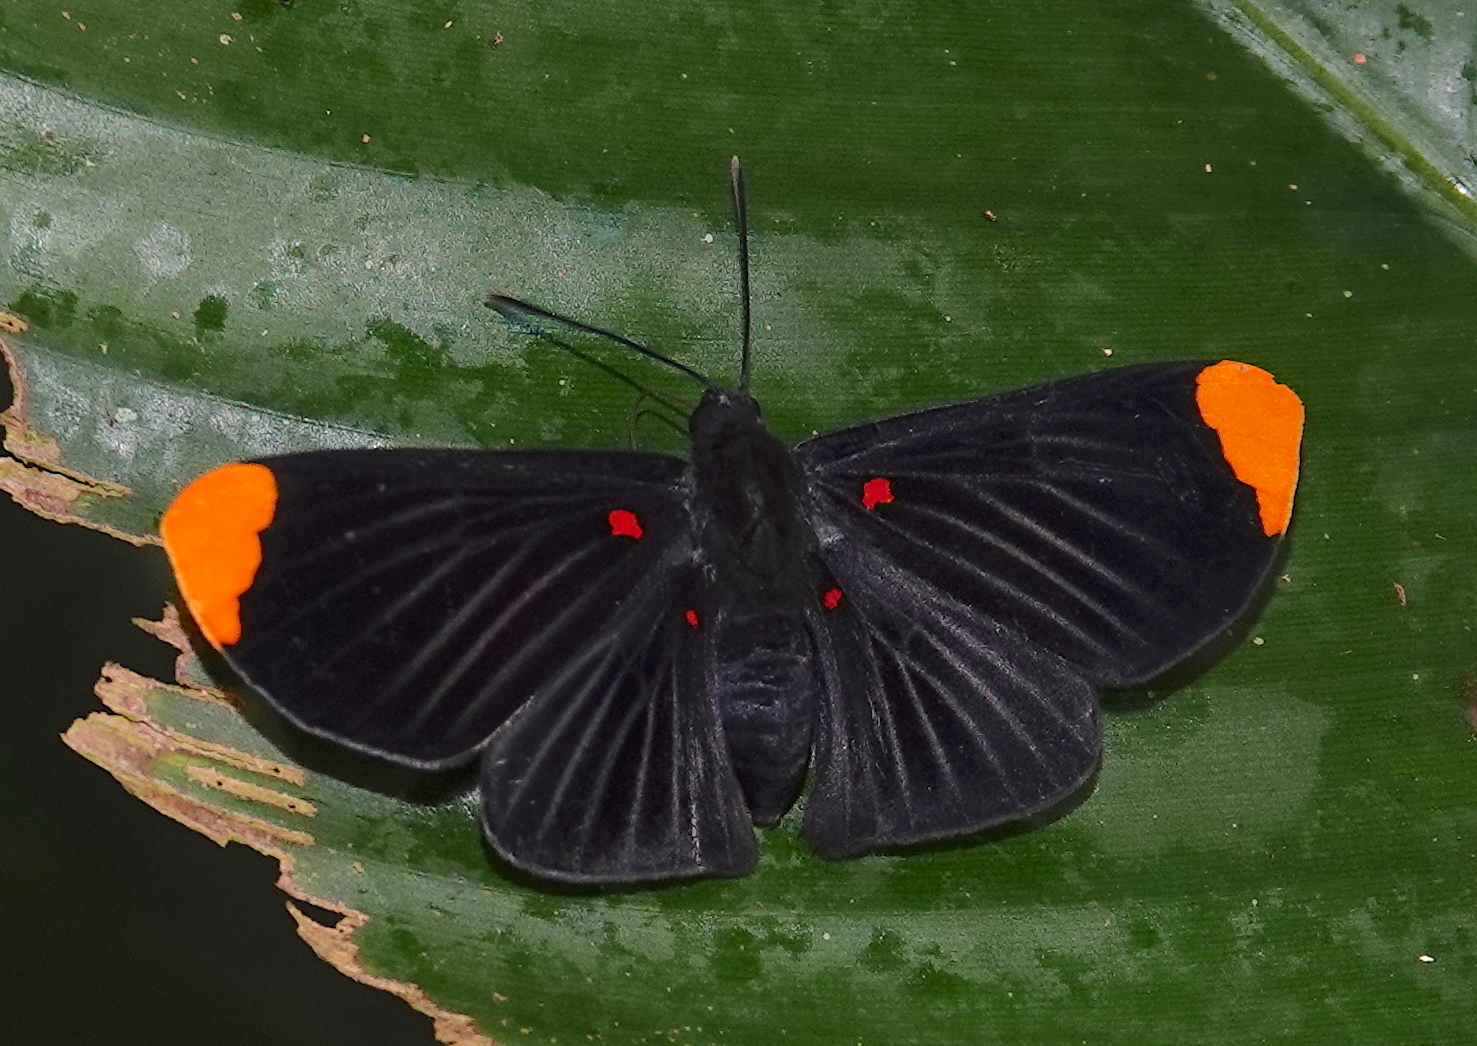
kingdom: Animalia
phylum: Arthropoda
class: Insecta
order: Lepidoptera
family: Lycaenidae
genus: Melanis
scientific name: Melanis smithiae
